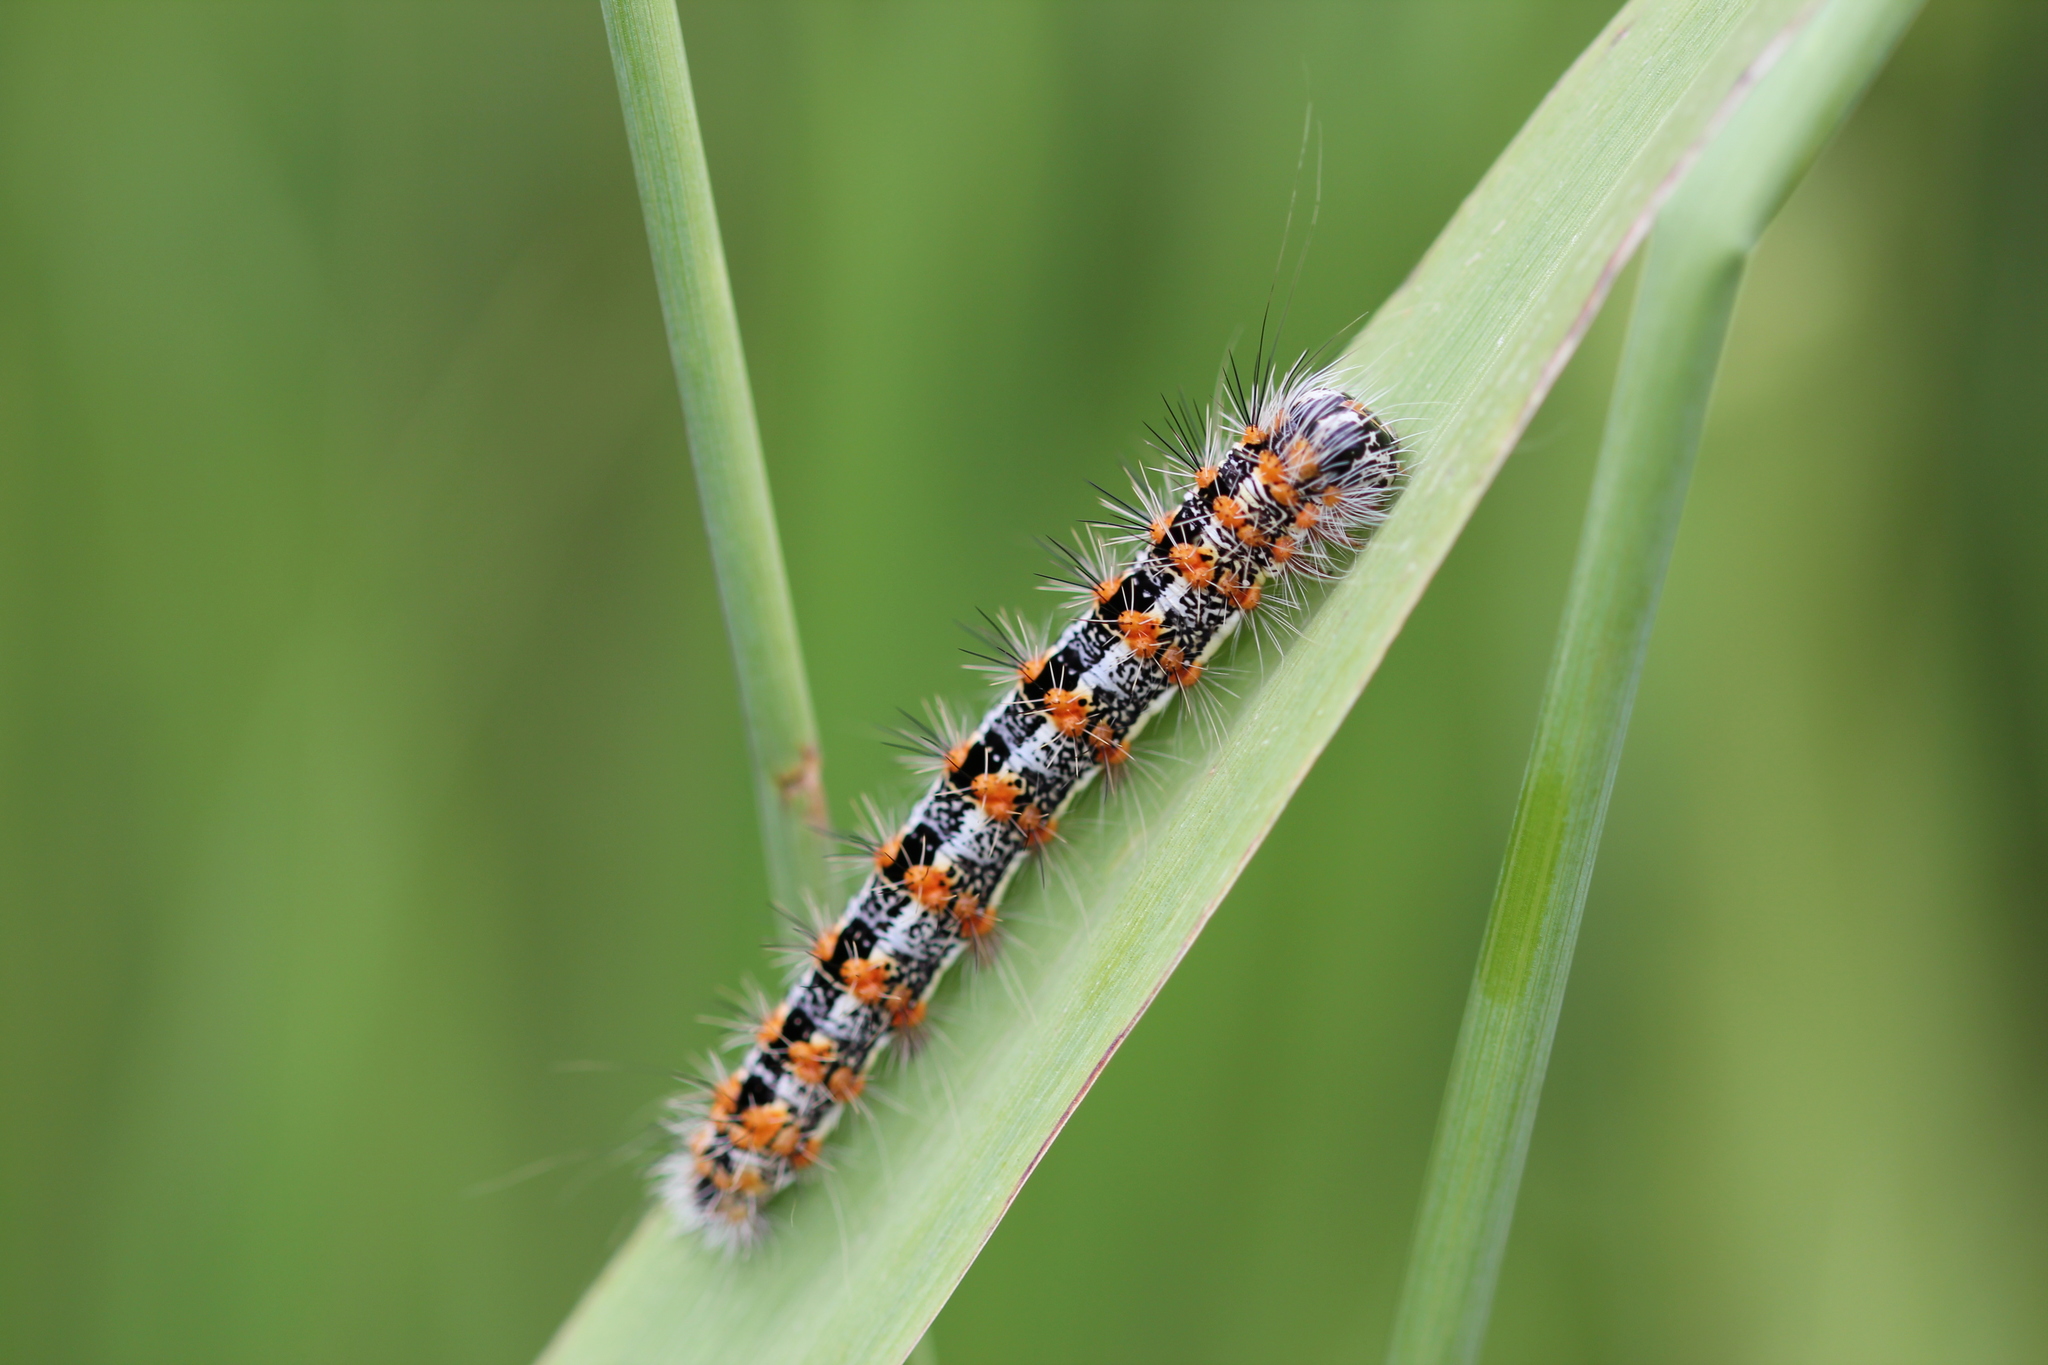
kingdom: Animalia
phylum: Arthropoda
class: Insecta
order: Lepidoptera
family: Noctuidae
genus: Acronicta
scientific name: Acronicta insularis
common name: Henry's marsh moth
